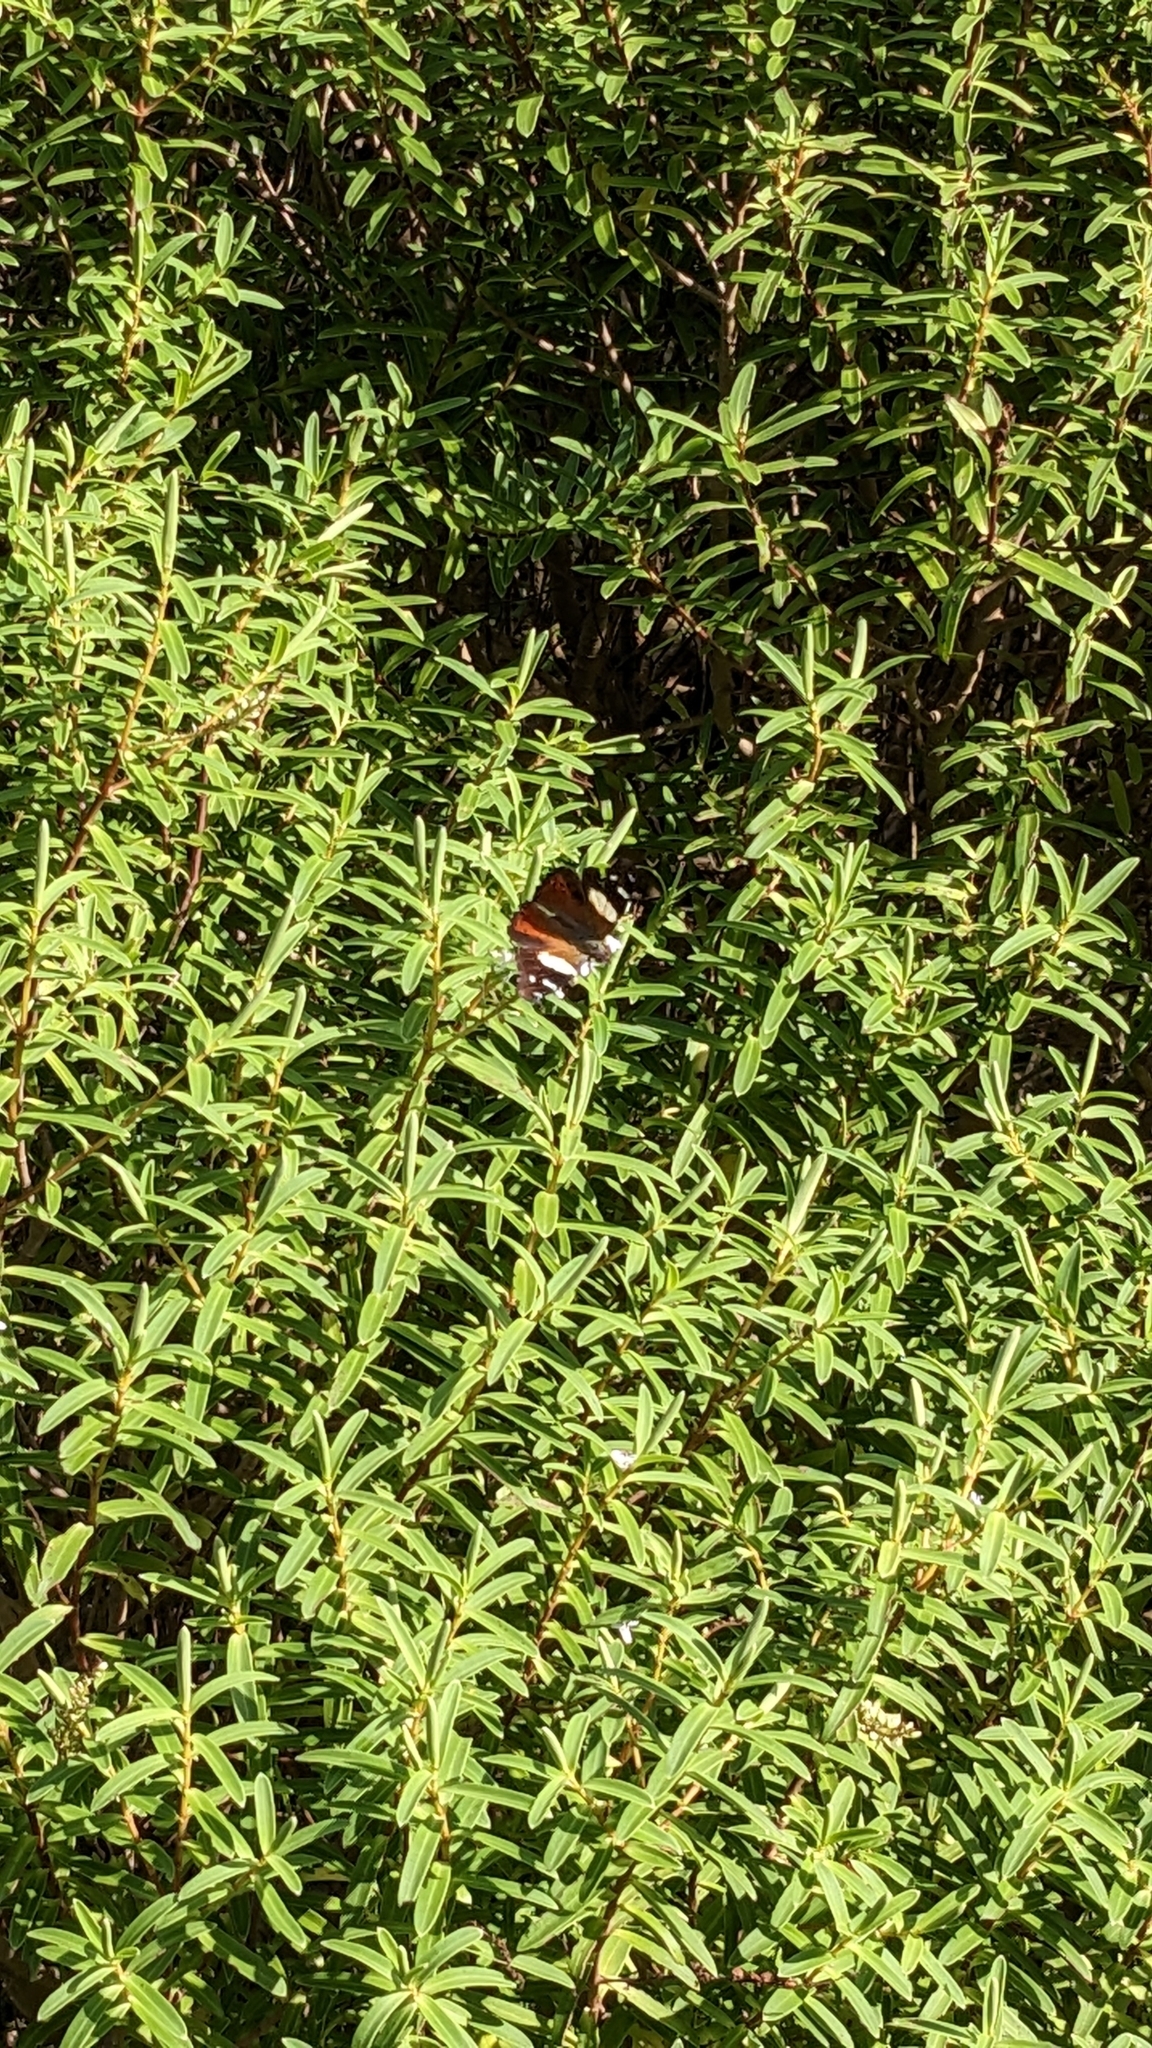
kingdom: Animalia
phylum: Arthropoda
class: Insecta
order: Lepidoptera
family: Nymphalidae
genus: Vanessa
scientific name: Vanessa itea
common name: Yellow admiral
